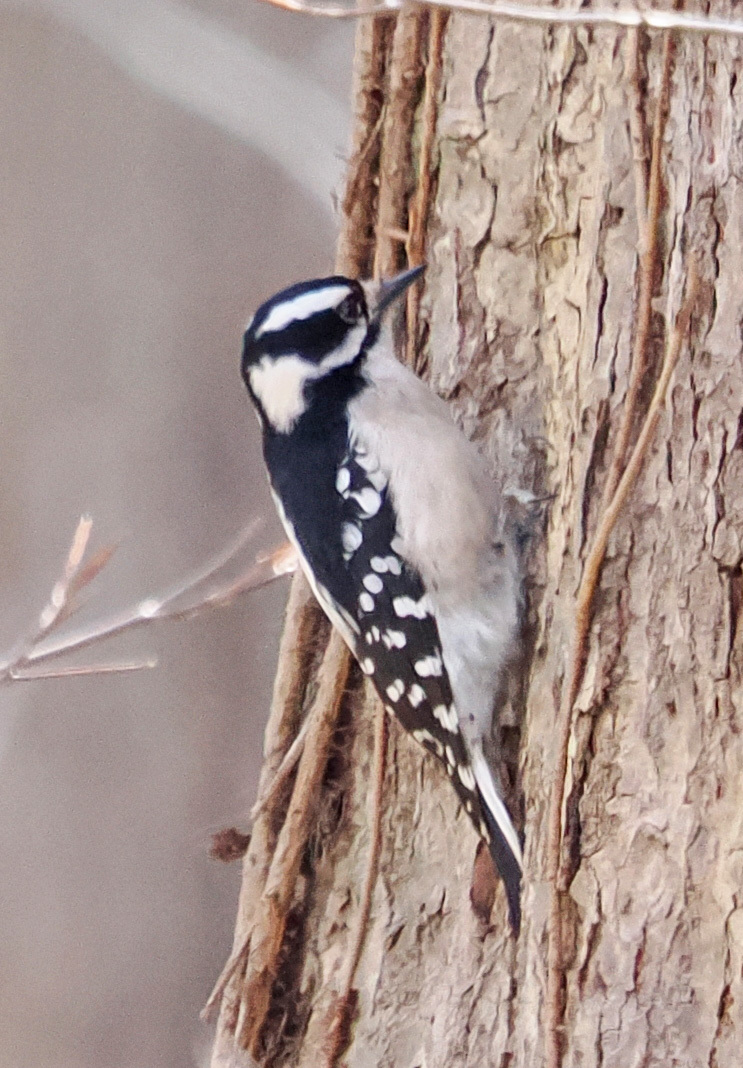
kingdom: Animalia
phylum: Chordata
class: Aves
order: Piciformes
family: Picidae
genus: Dryobates
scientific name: Dryobates pubescens
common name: Downy woodpecker
